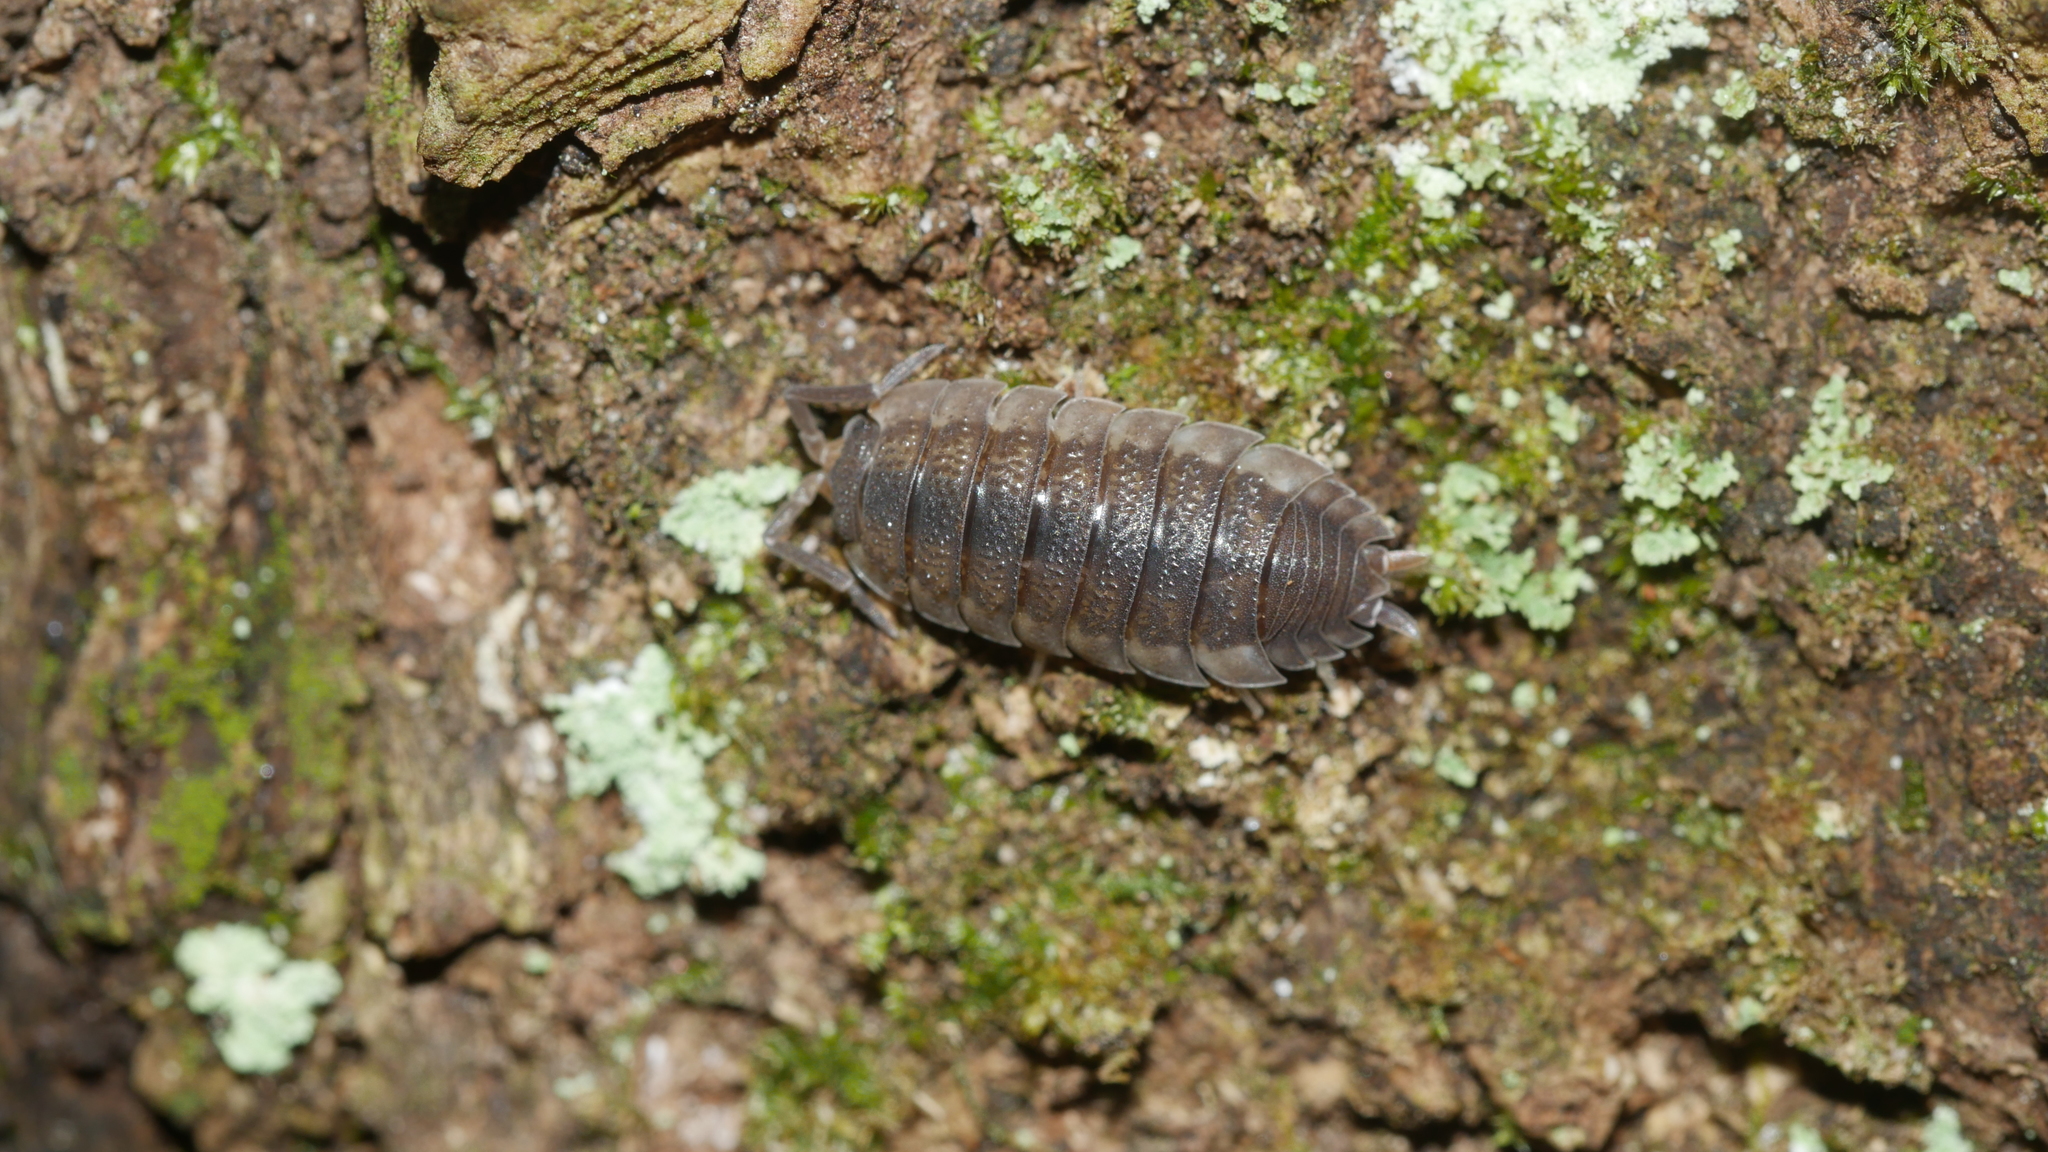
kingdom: Animalia
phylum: Arthropoda
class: Malacostraca
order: Isopoda
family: Porcellionidae
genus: Porcellio
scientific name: Porcellio scaber
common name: Common rough woodlouse
